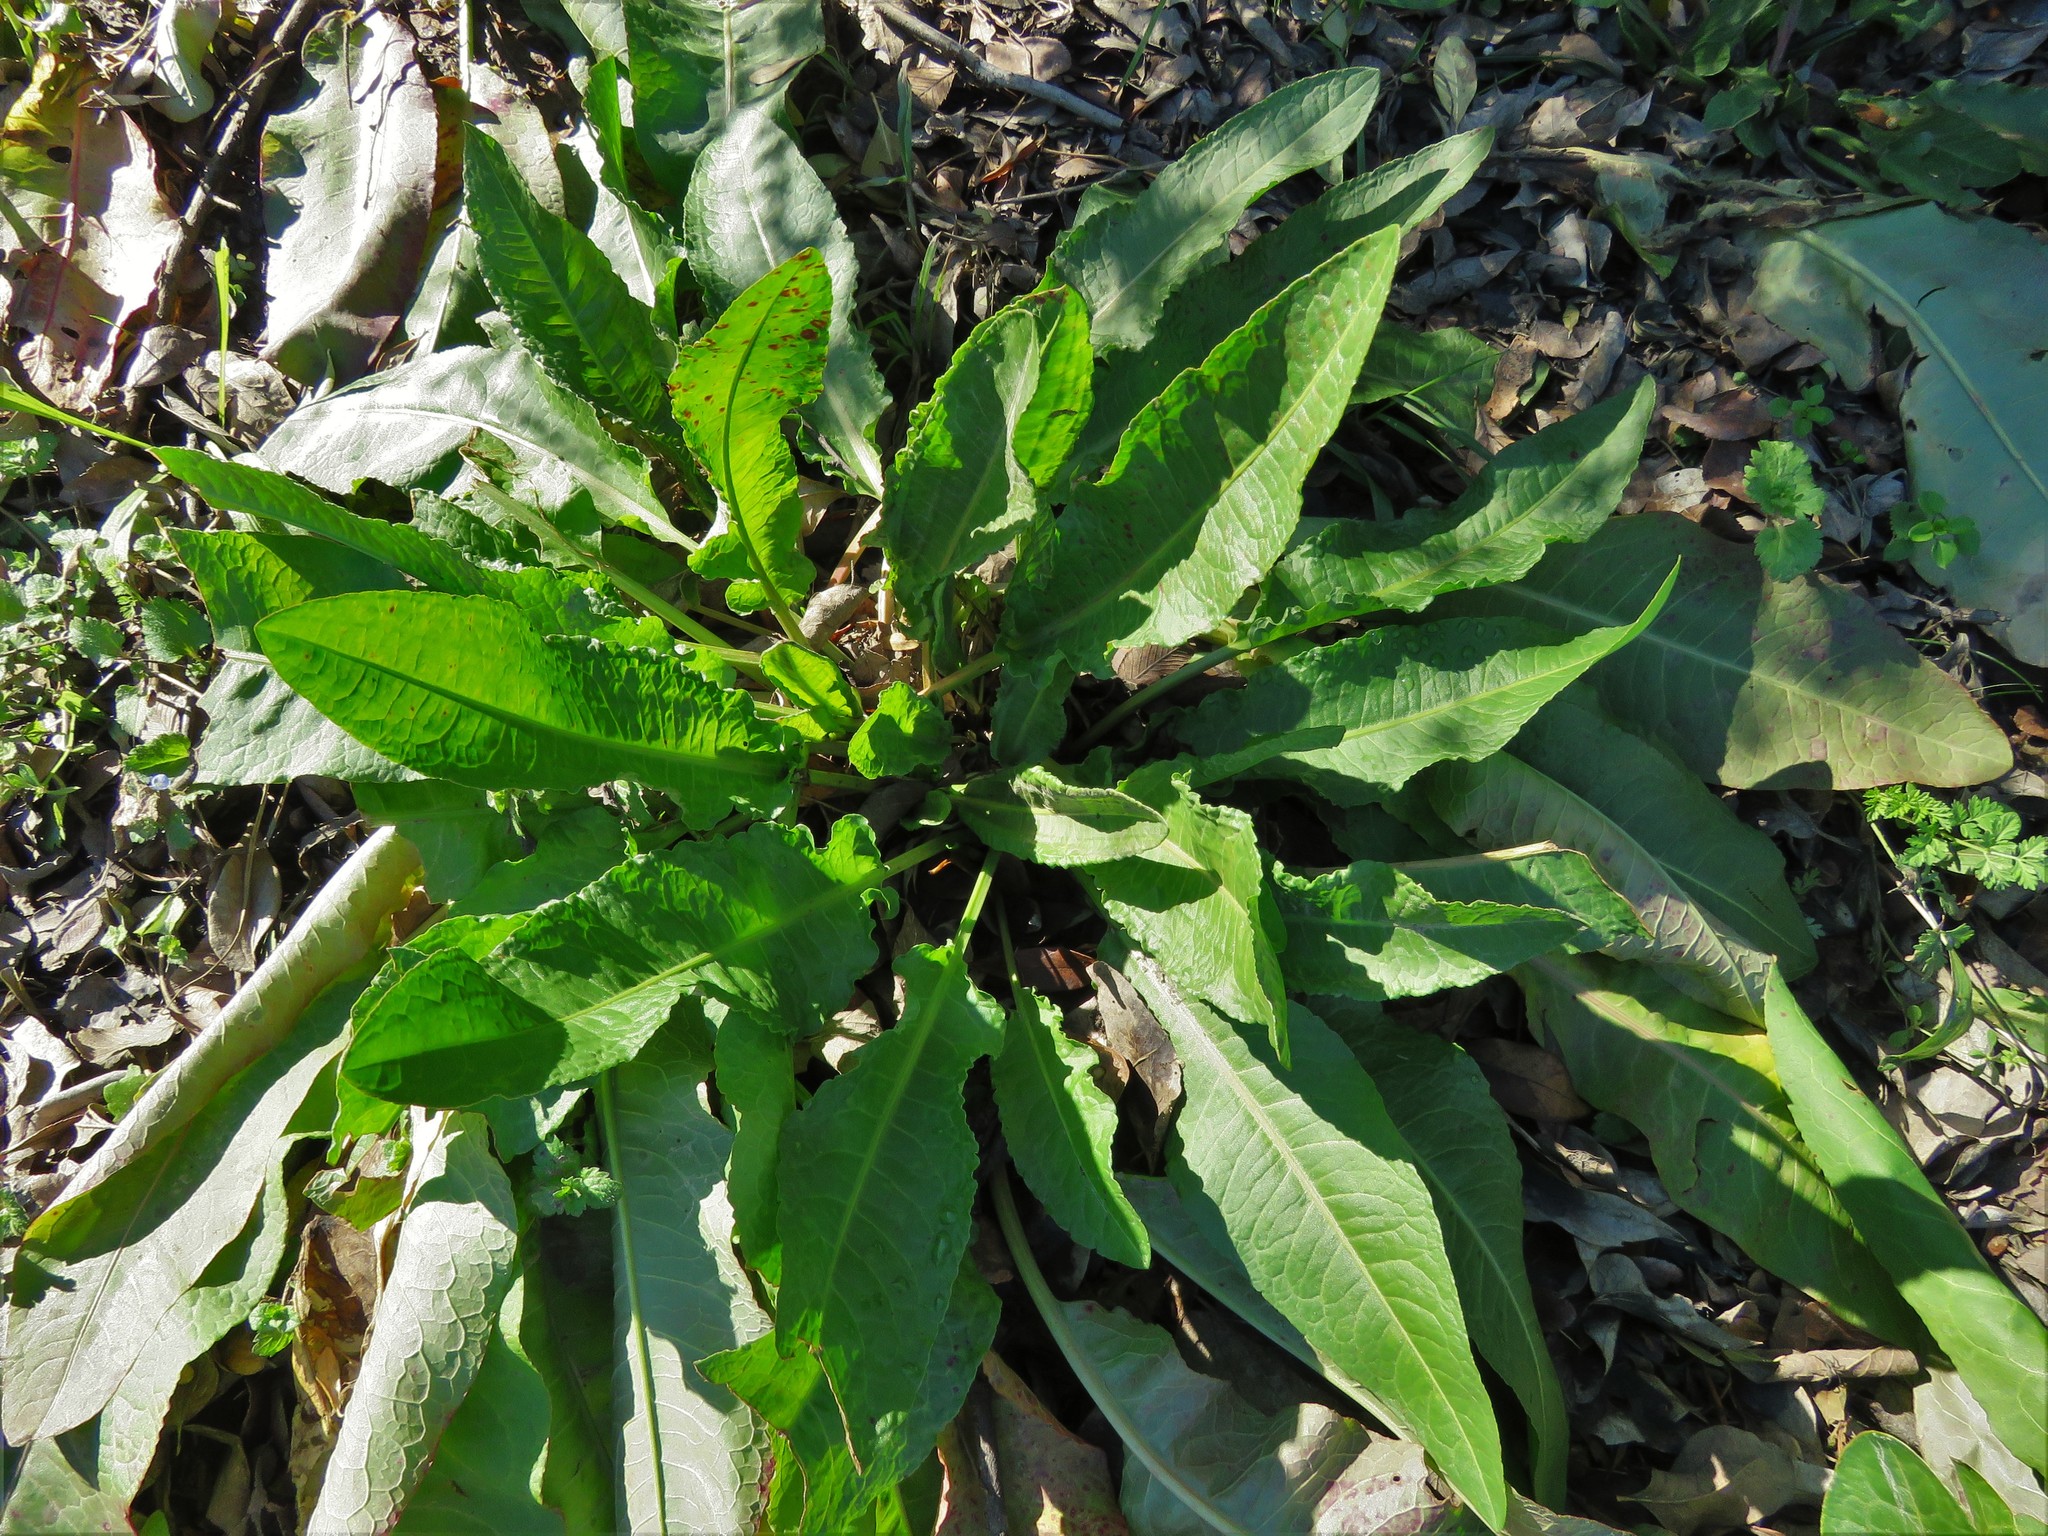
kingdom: Plantae
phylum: Tracheophyta
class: Magnoliopsida
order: Caryophyllales
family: Polygonaceae
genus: Rumex
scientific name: Rumex crispus
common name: Curled dock
